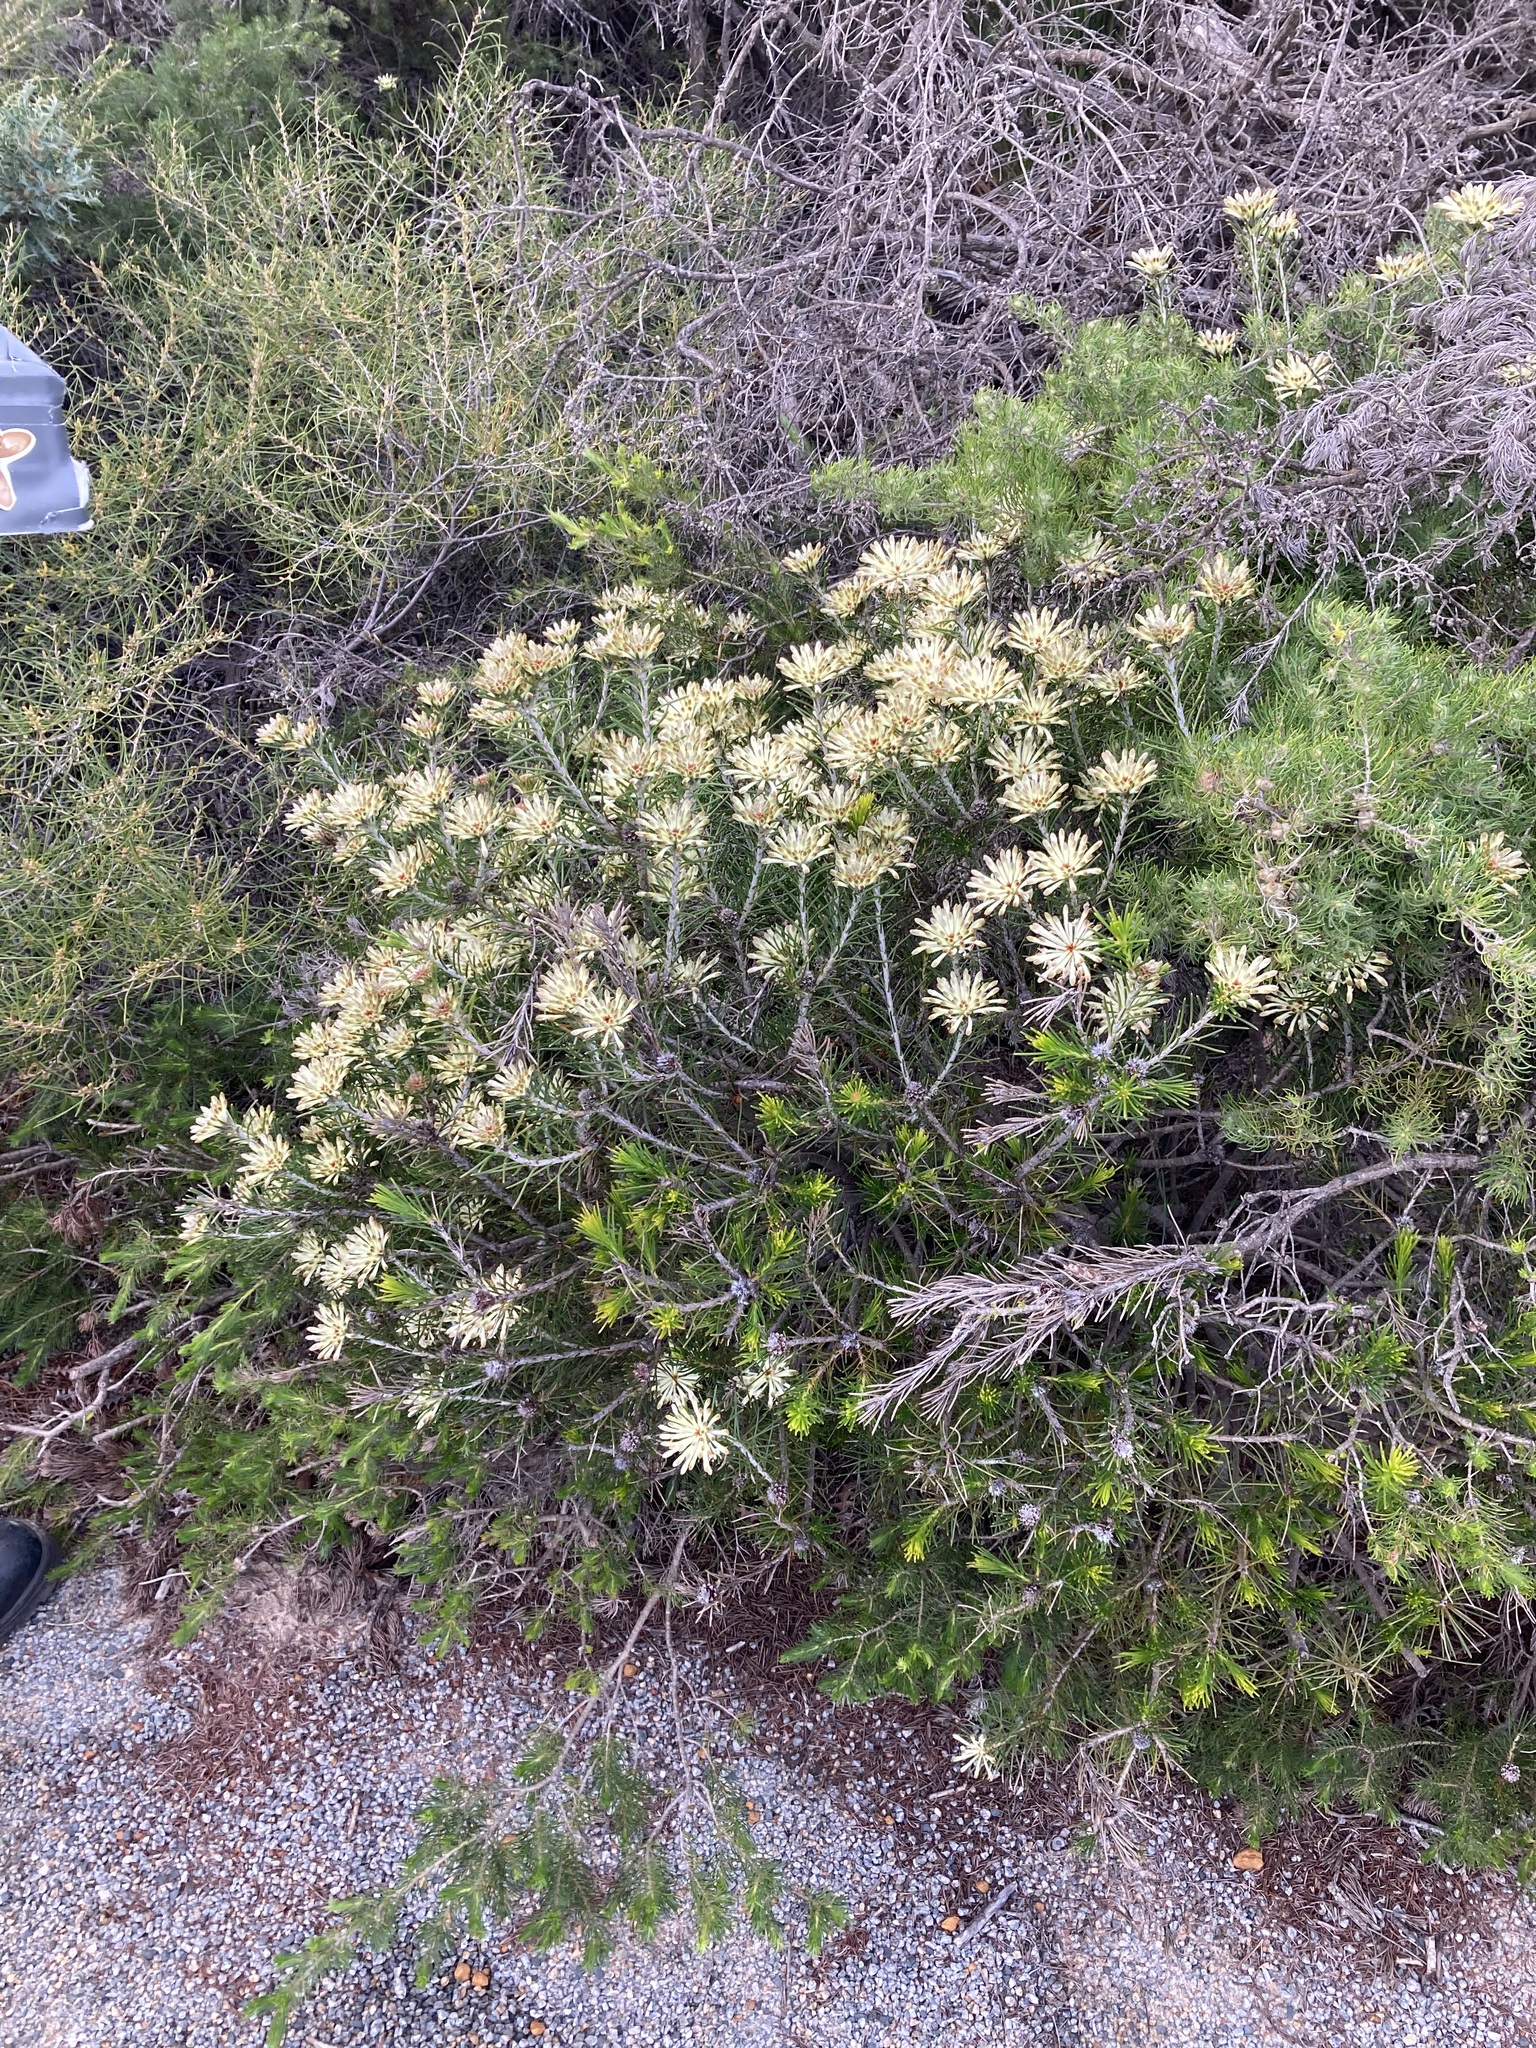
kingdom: Plantae
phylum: Tracheophyta
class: Magnoliopsida
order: Proteales
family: Proteaceae
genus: Petrophile
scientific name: Petrophile brevifolia
